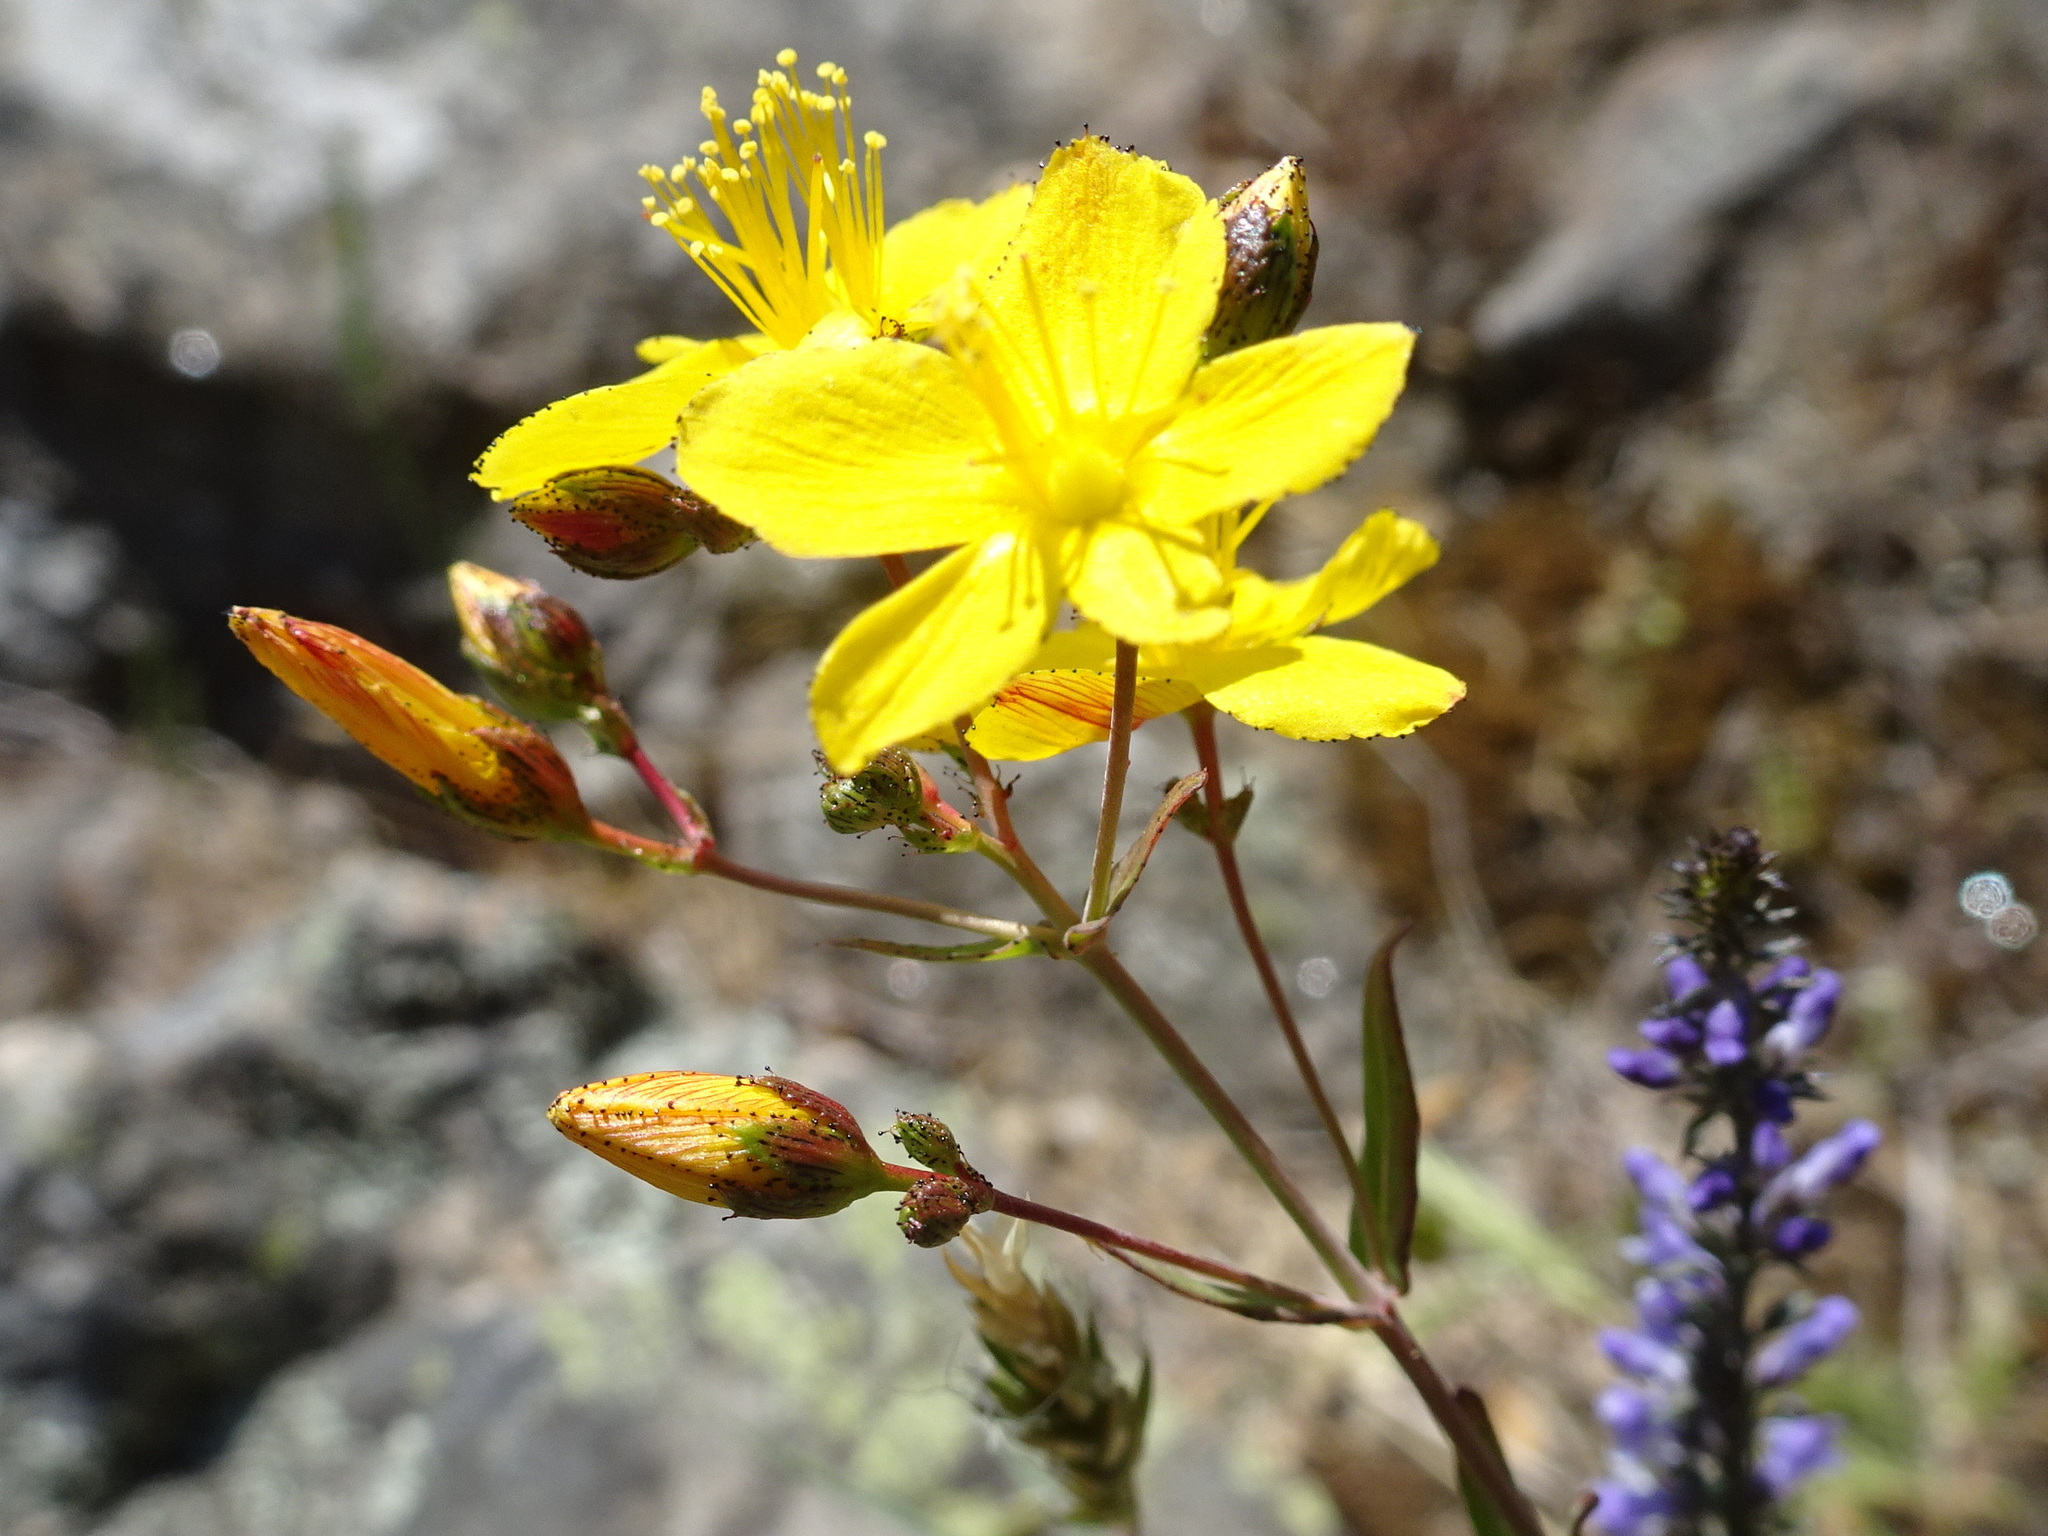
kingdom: Plantae
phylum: Tracheophyta
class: Magnoliopsida
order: Malpighiales
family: Hypericaceae
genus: Hypericum
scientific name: Hypericum linariifolium
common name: Toadflax-leaved st. john's-wort
